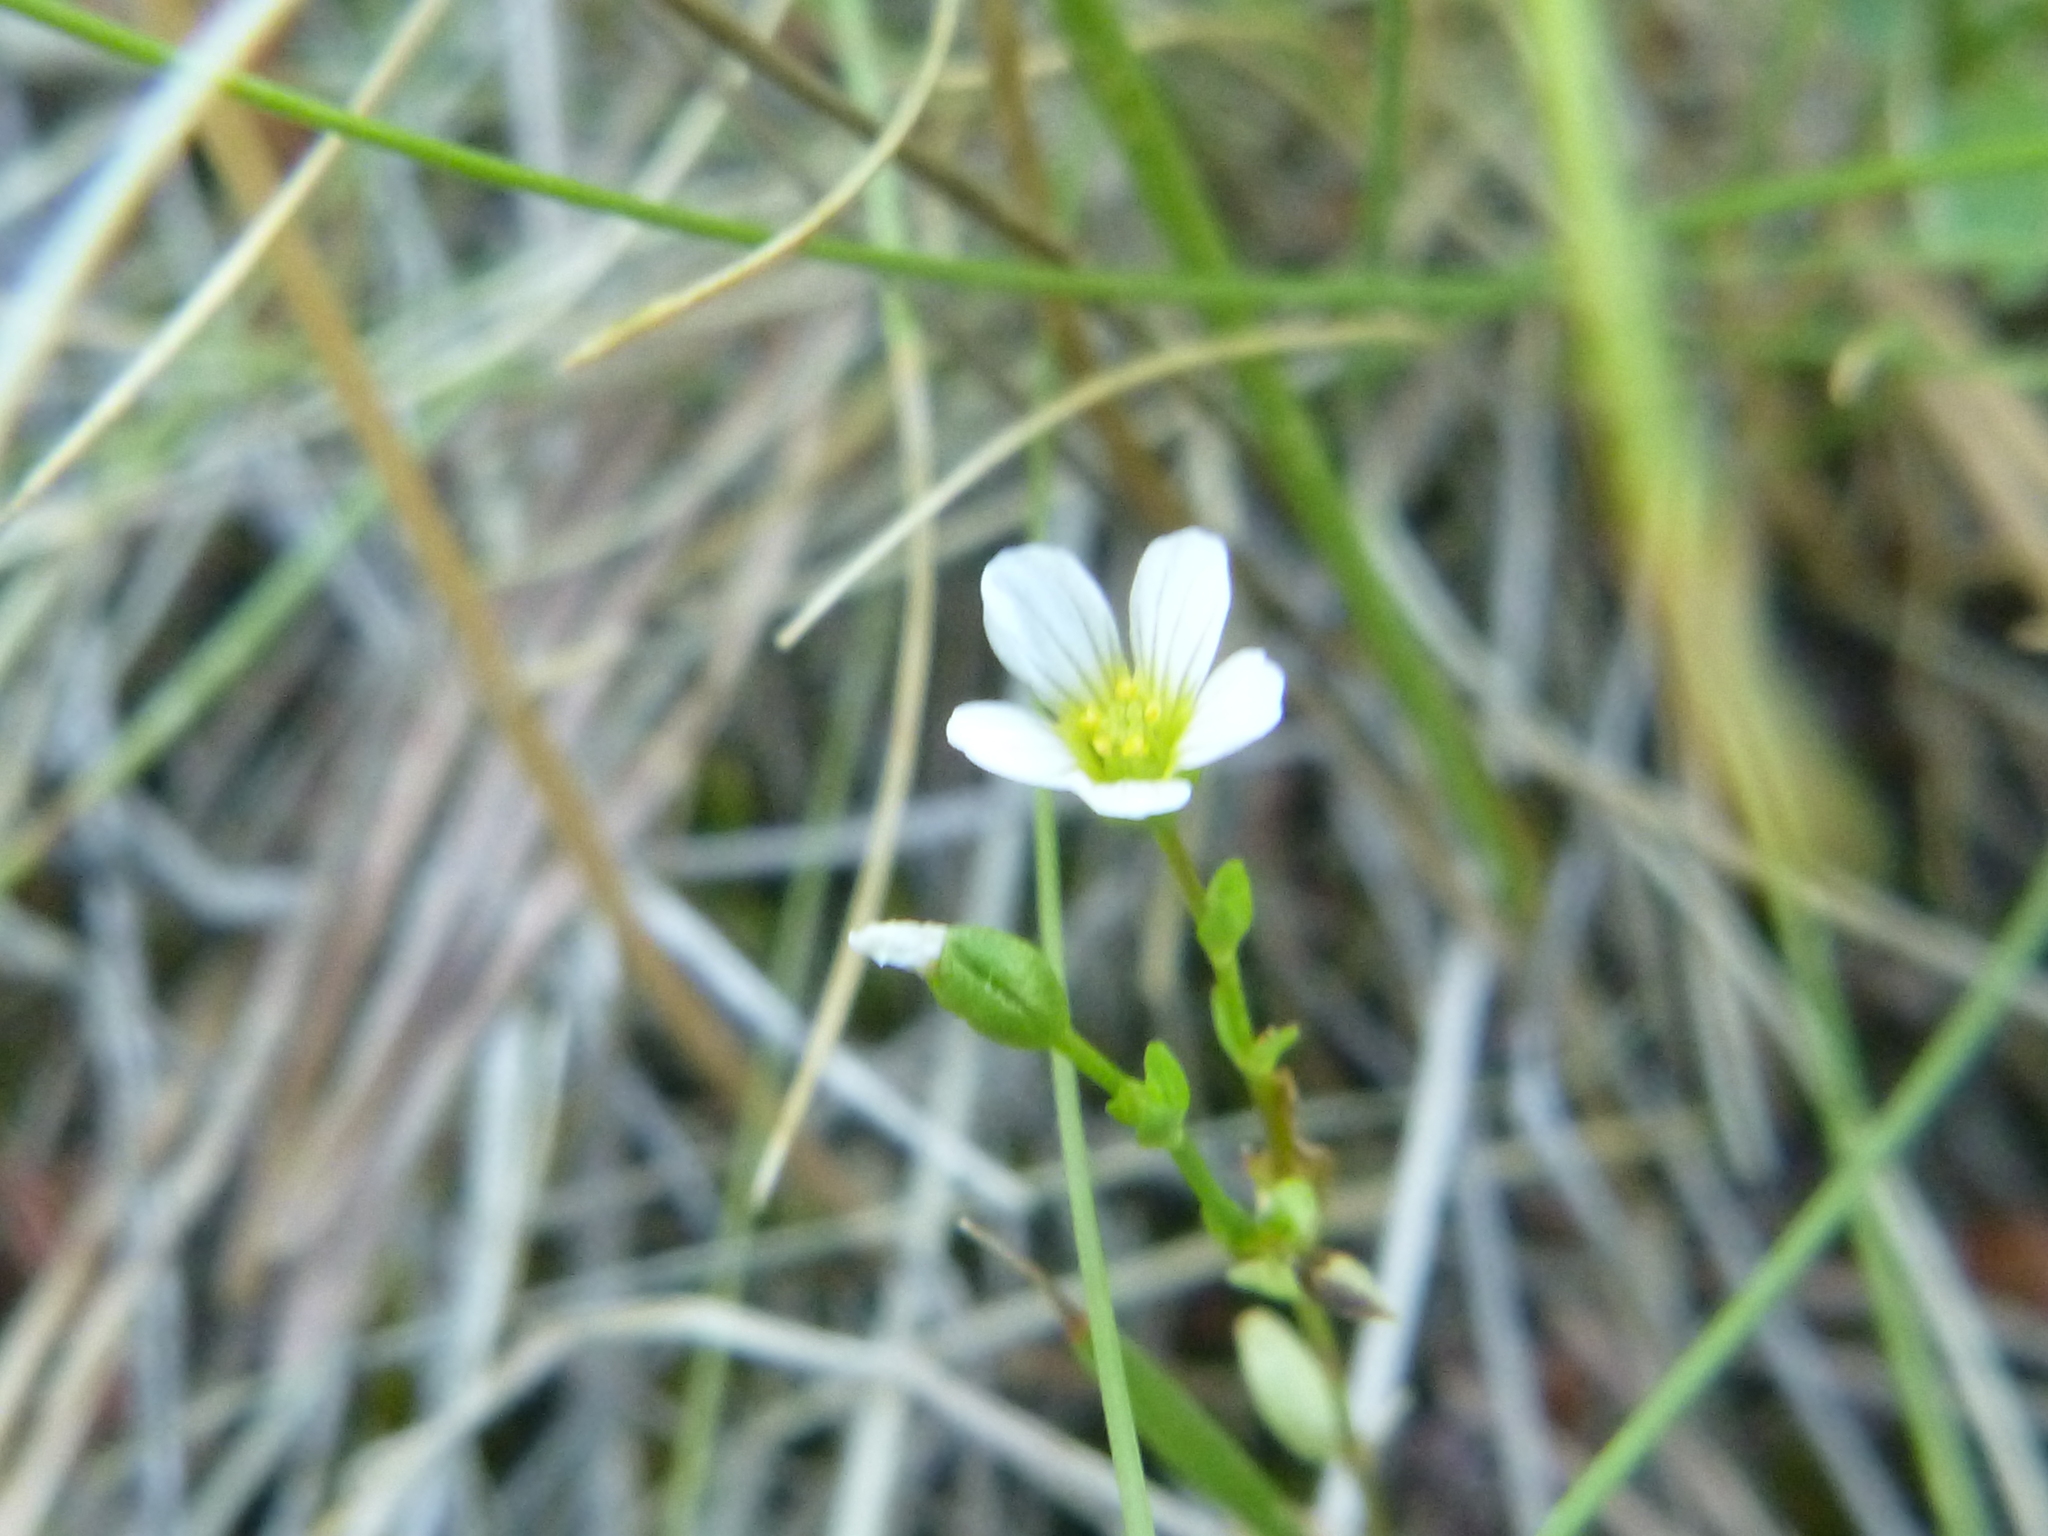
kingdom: Plantae
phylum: Tracheophyta
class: Magnoliopsida
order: Malpighiales
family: Linaceae
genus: Linum
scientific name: Linum catharticum
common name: Fairy flax
